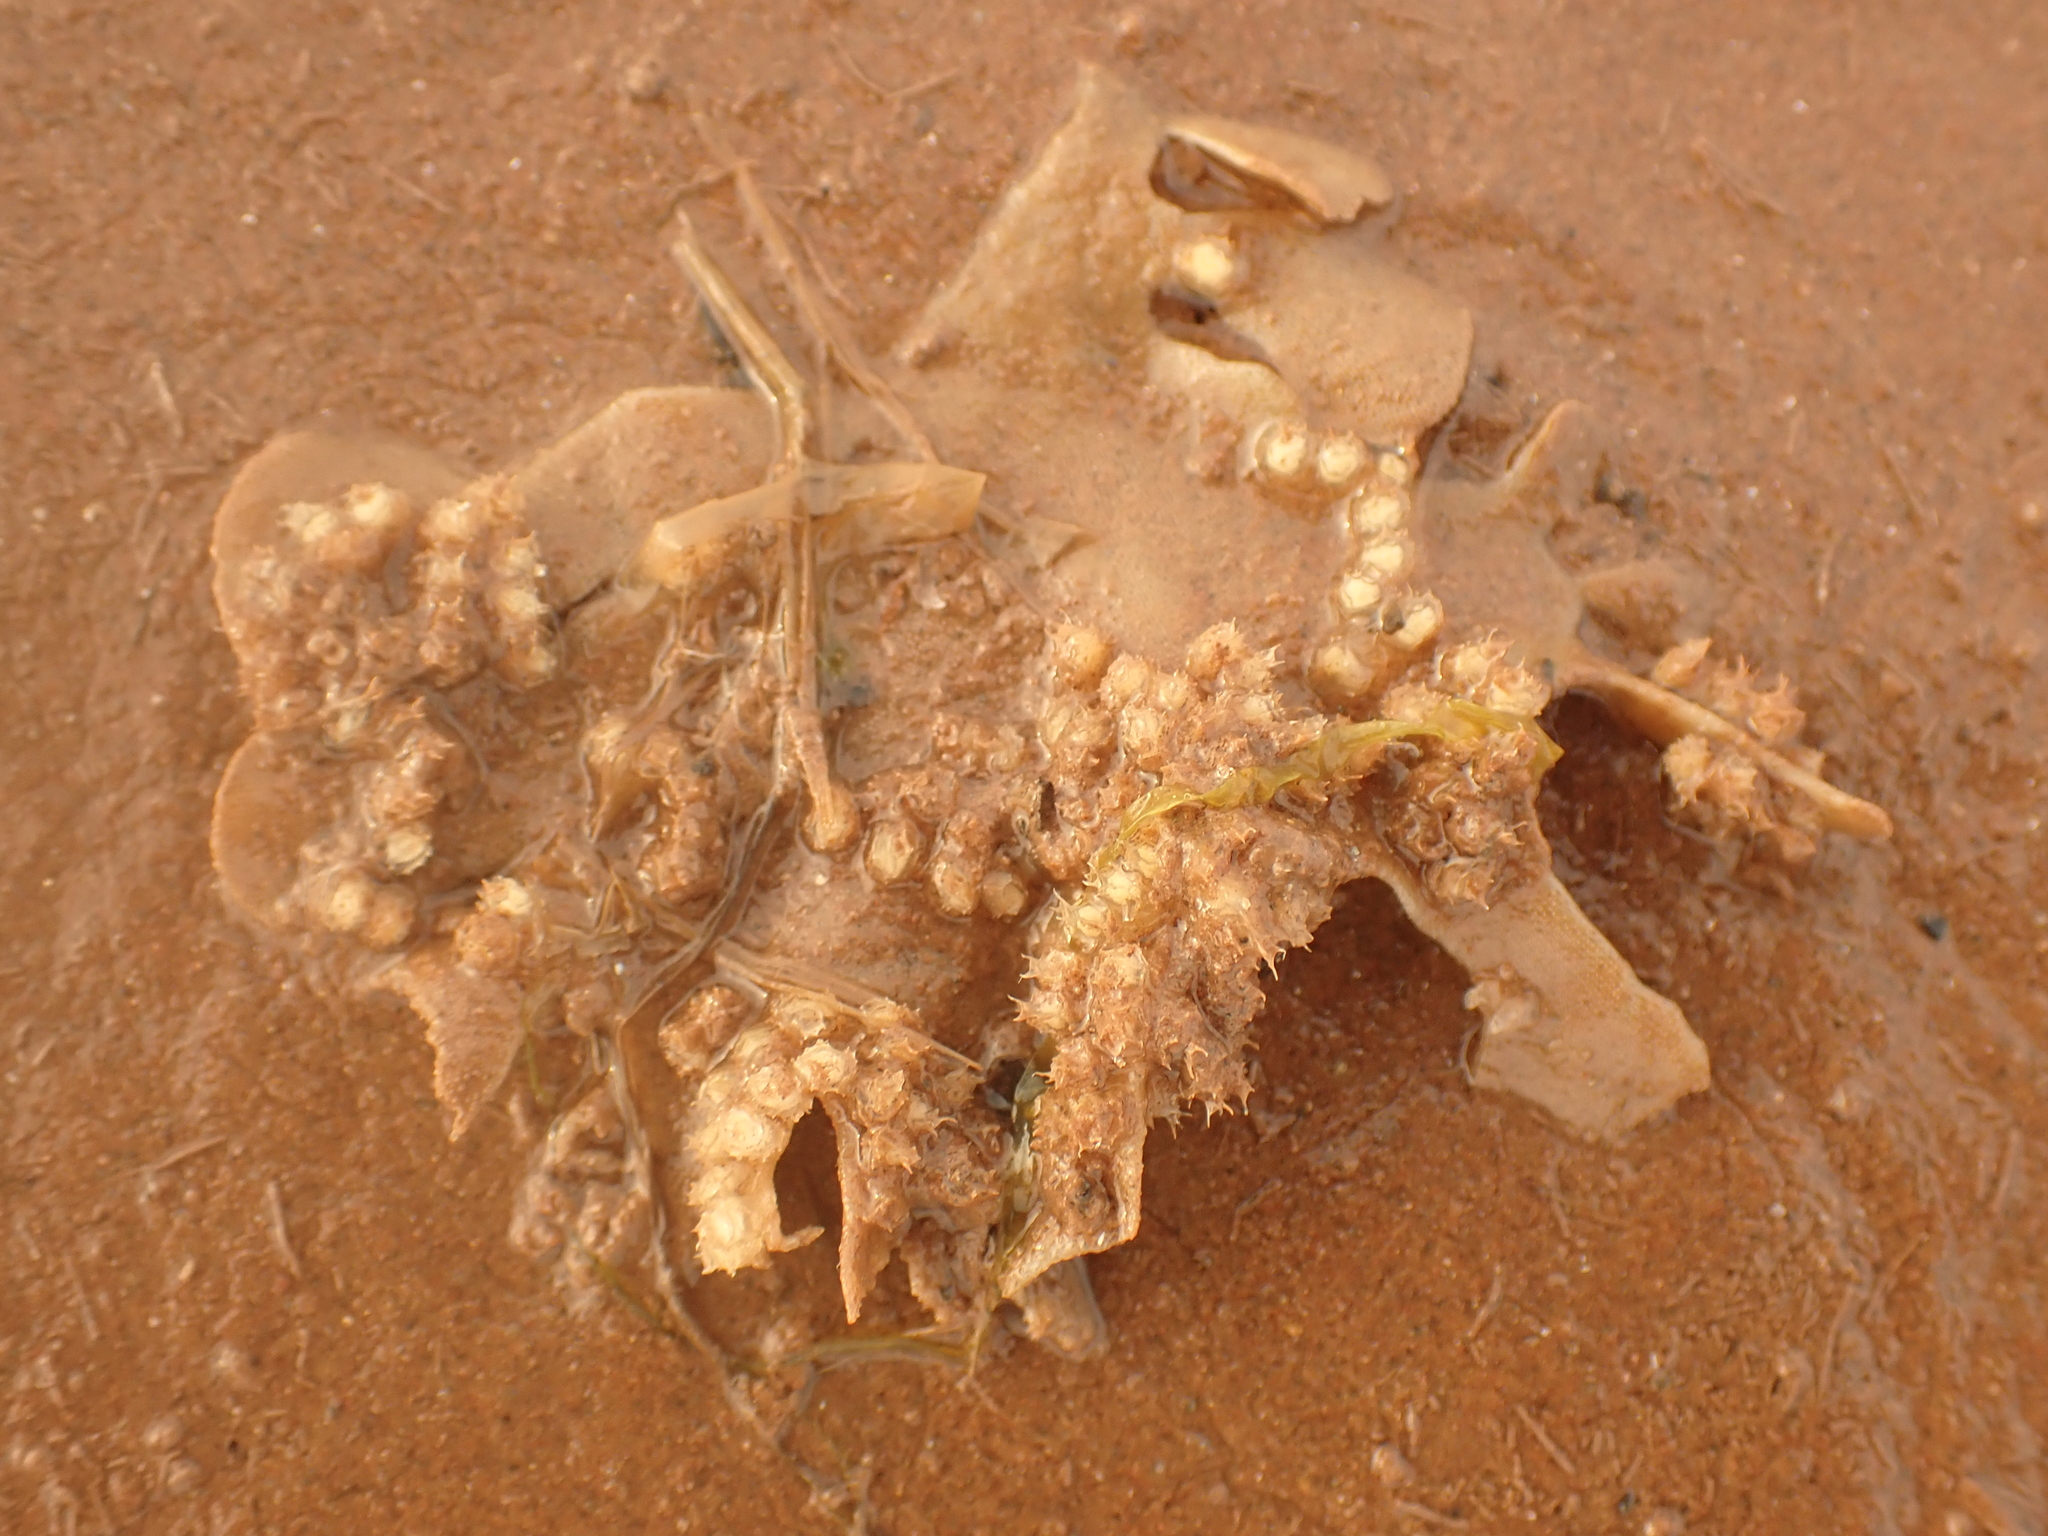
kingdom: Animalia
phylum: Mollusca
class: Gastropoda
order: Neogastropoda
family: Nassariidae
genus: Ilyanassa
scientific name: Ilyanassa obsoleta
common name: Eastern mudsnail
